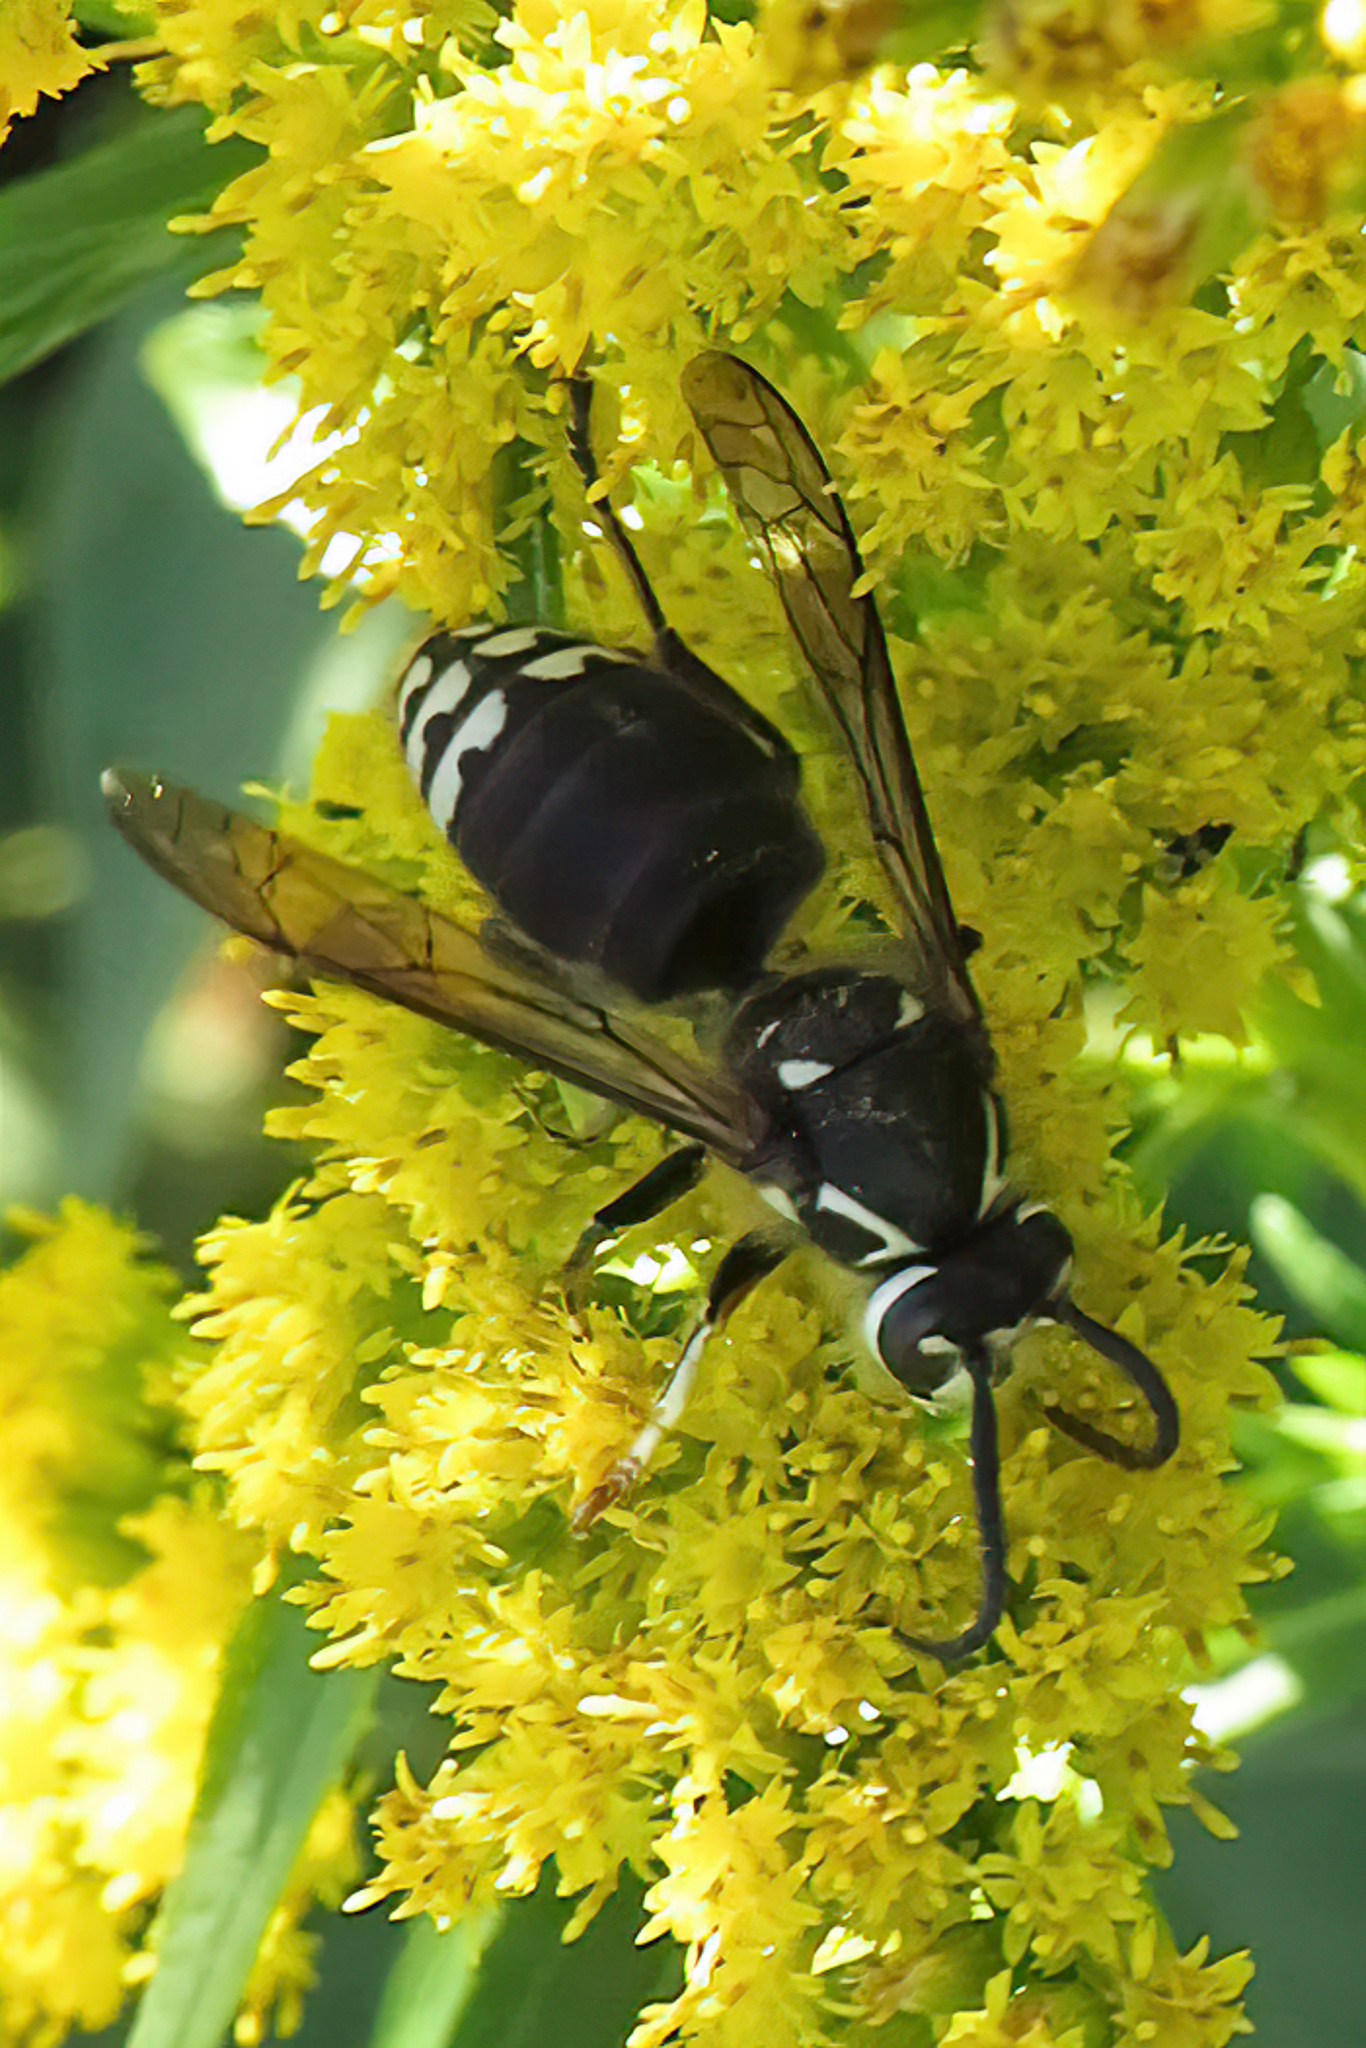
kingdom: Animalia
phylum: Arthropoda
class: Insecta
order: Hymenoptera
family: Vespidae
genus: Dolichovespula
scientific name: Dolichovespula maculata
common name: Bald-faced hornet
